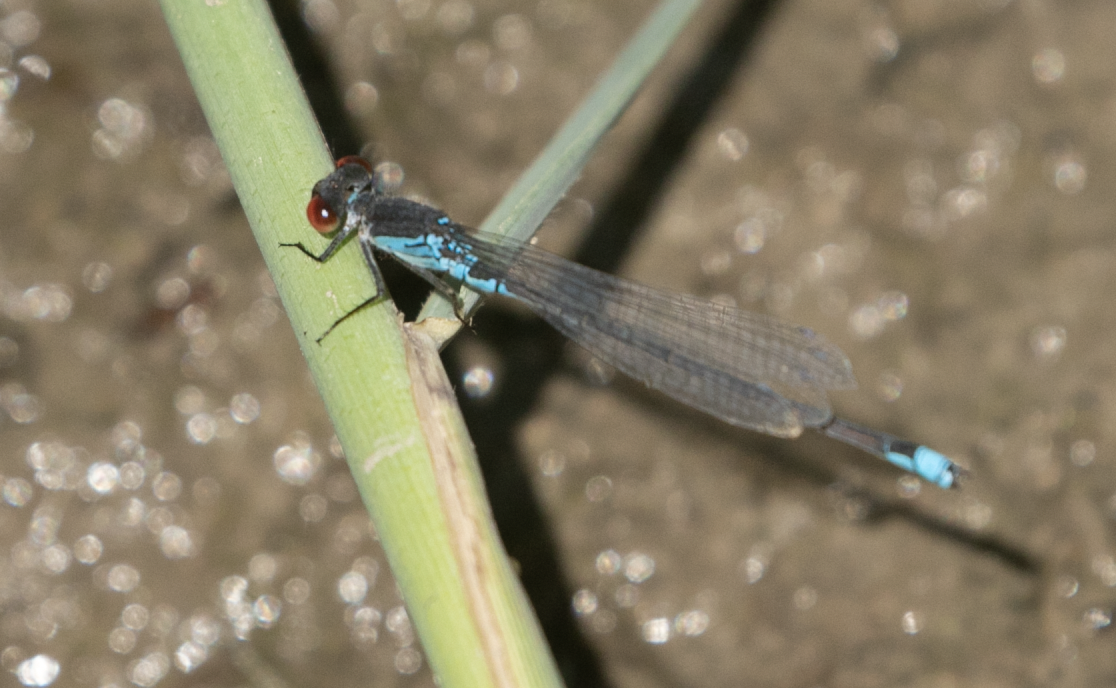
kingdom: Animalia
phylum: Arthropoda
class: Insecta
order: Odonata
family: Coenagrionidae
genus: Erythromma
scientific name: Erythromma viridulum
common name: Small red-eyed damselfly
